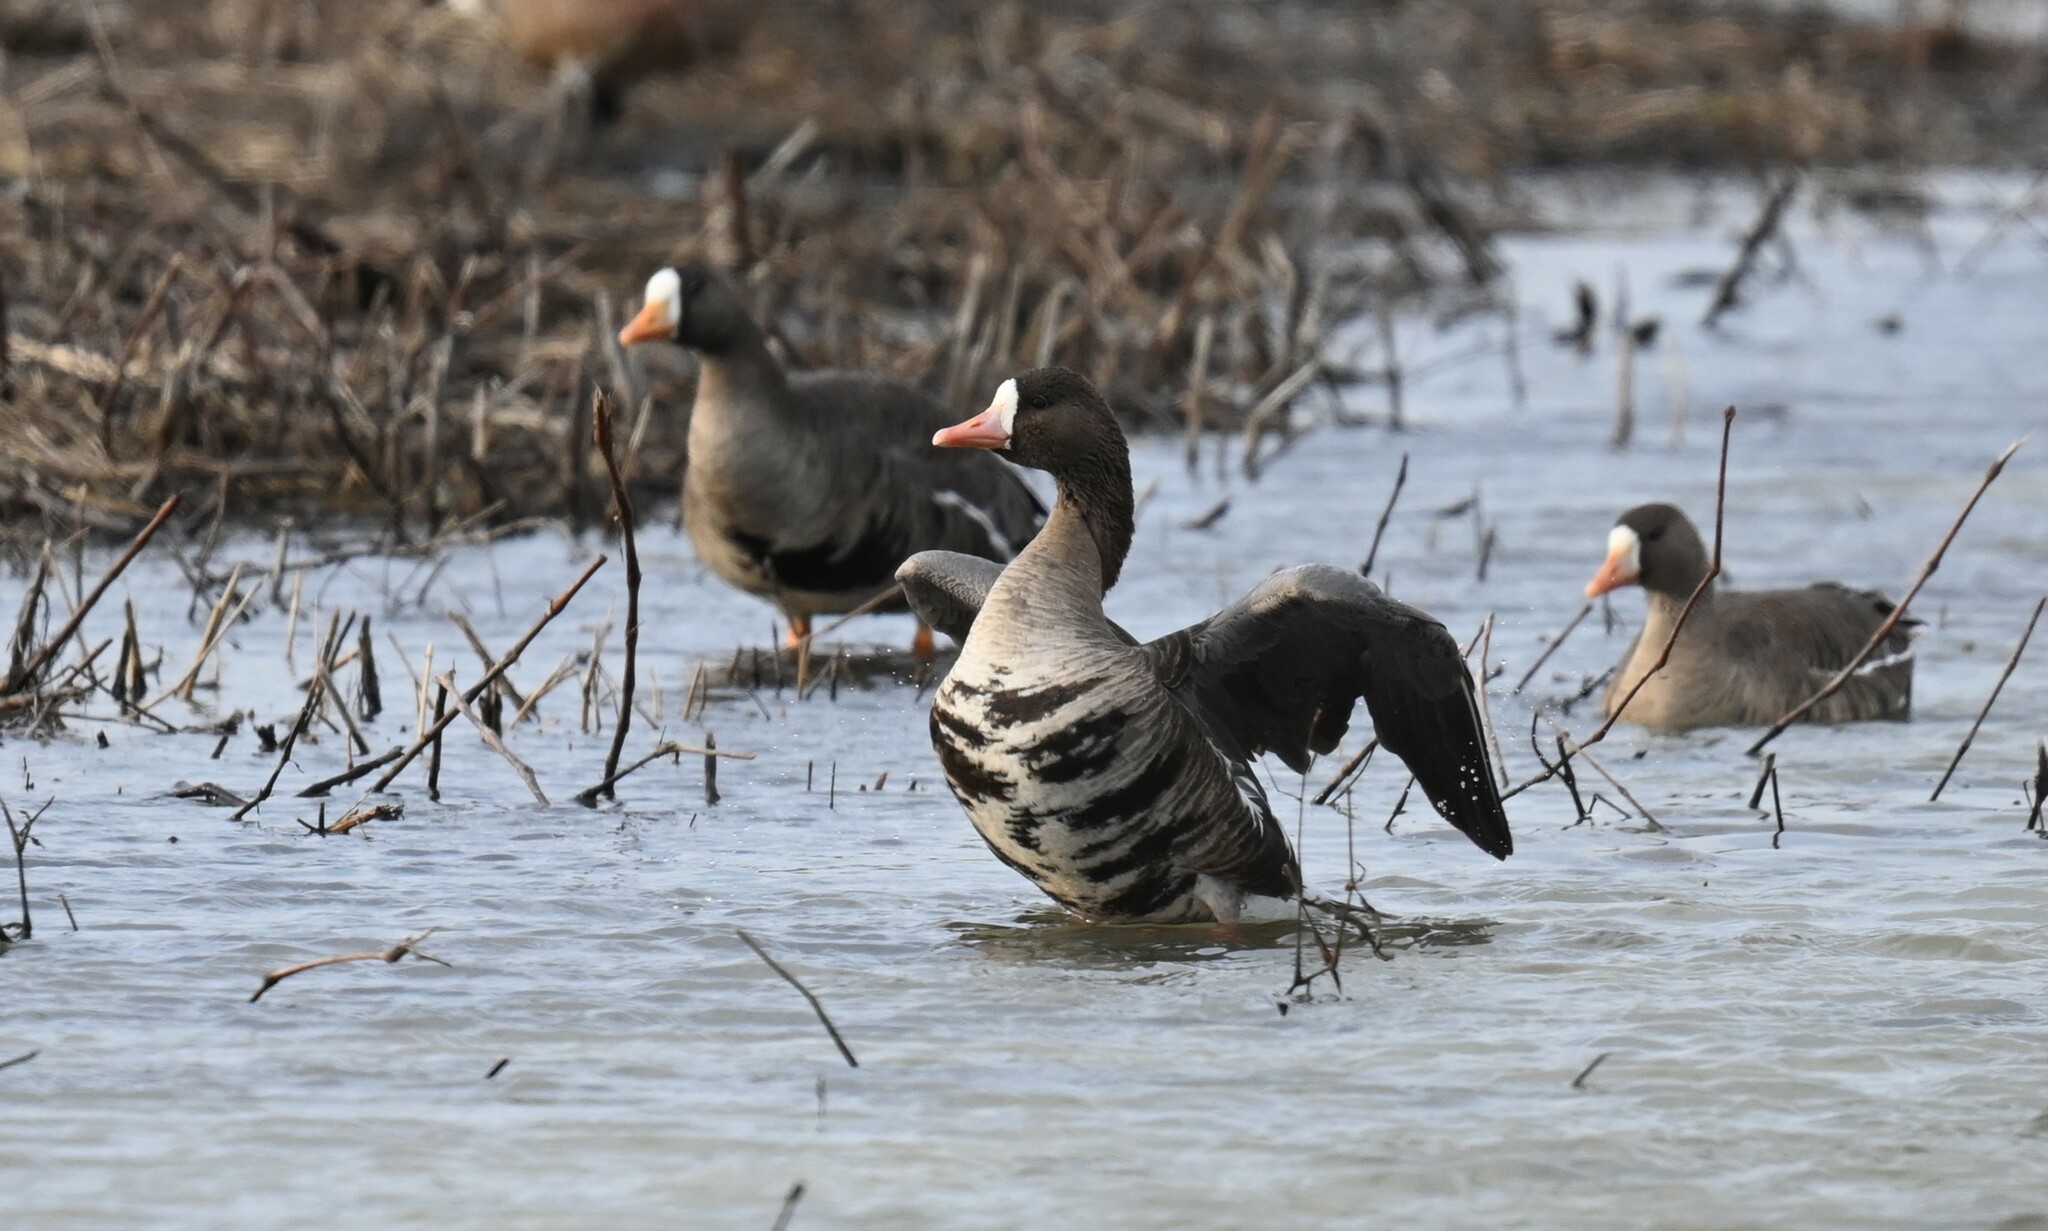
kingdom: Animalia
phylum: Chordata
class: Aves
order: Anseriformes
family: Anatidae
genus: Anser
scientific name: Anser albifrons
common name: Greater white-fronted goose
